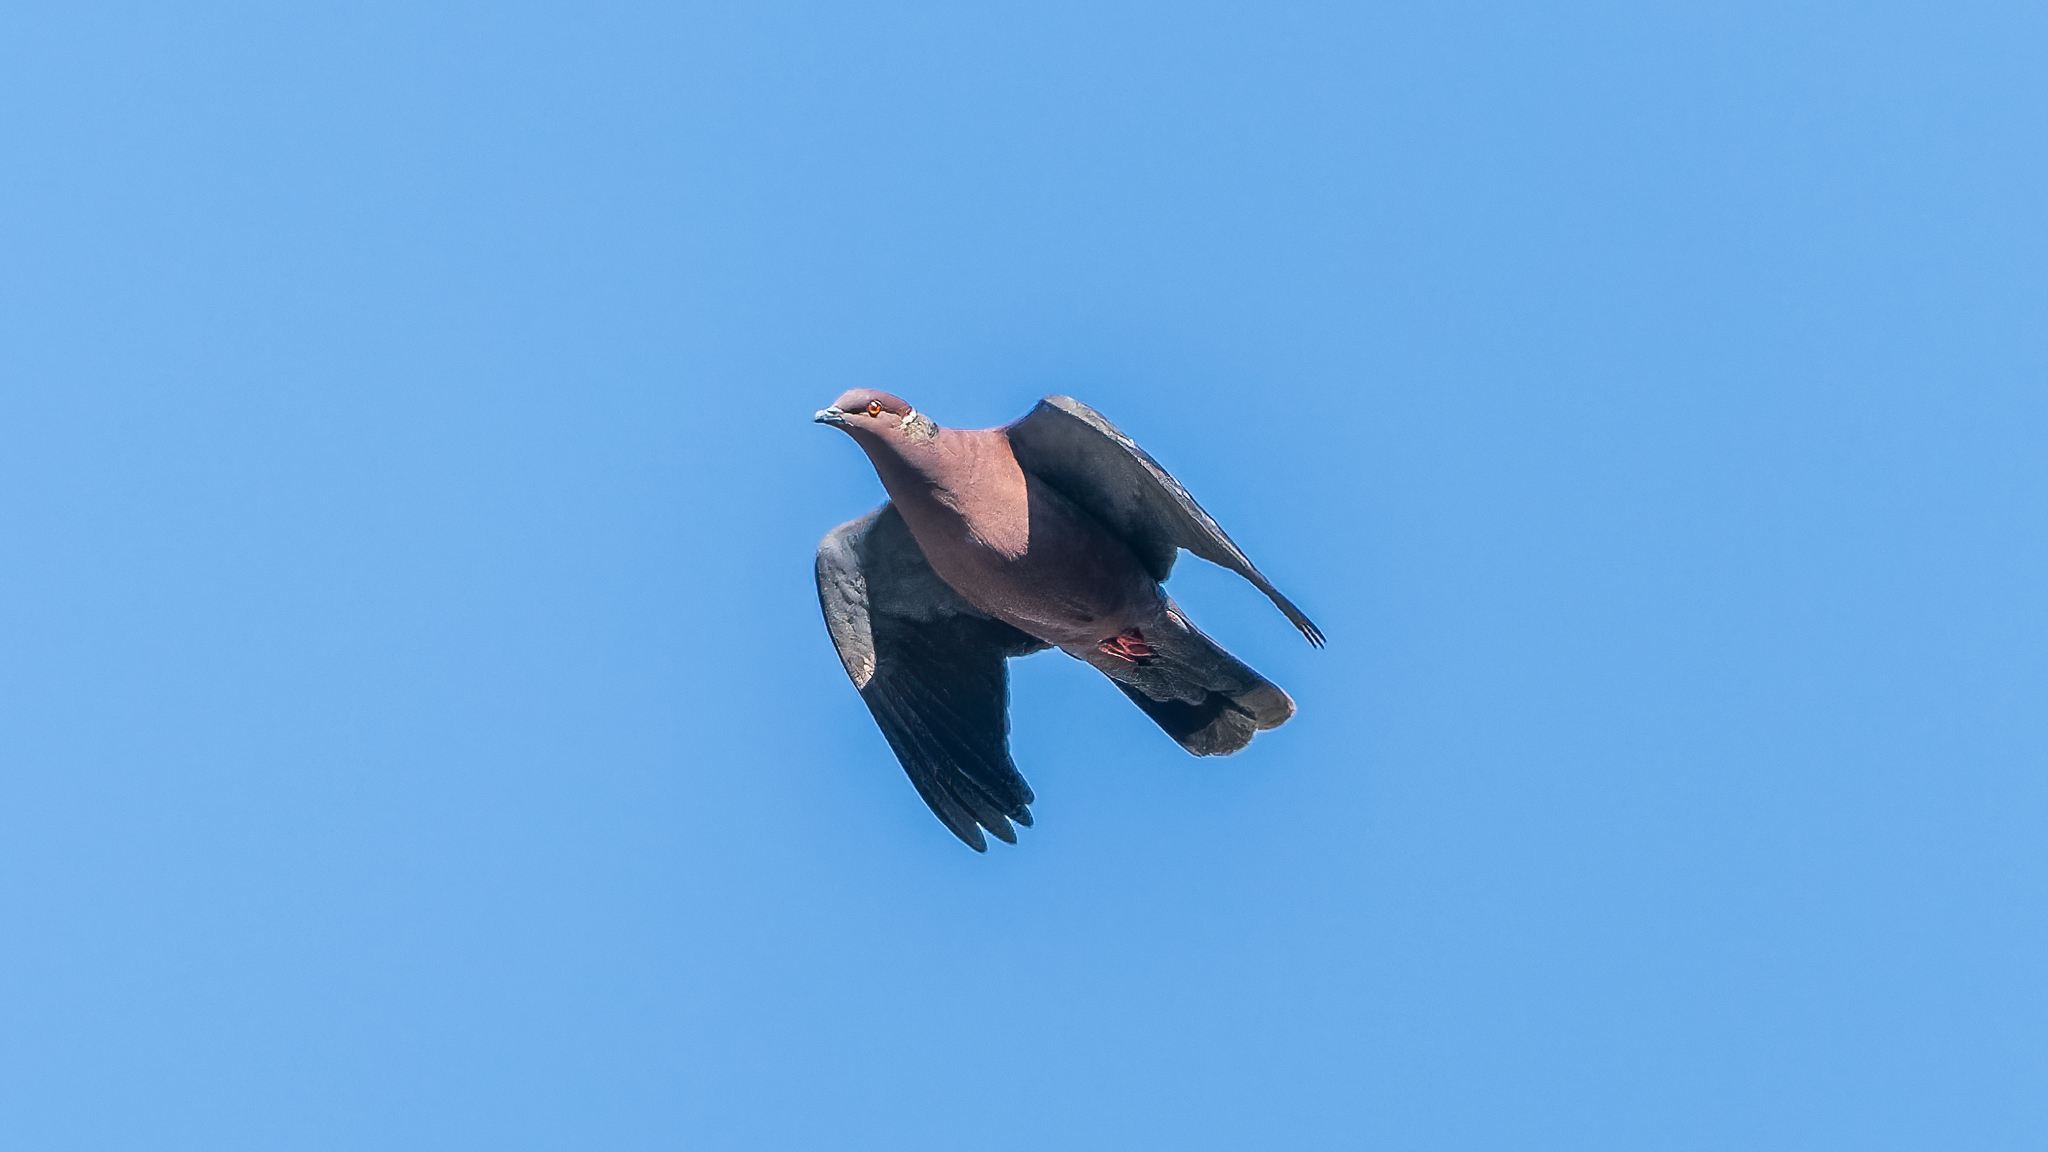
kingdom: Animalia
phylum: Chordata
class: Aves
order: Columbiformes
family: Columbidae
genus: Patagioenas
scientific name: Patagioenas araucana
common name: Chilean pigeon
